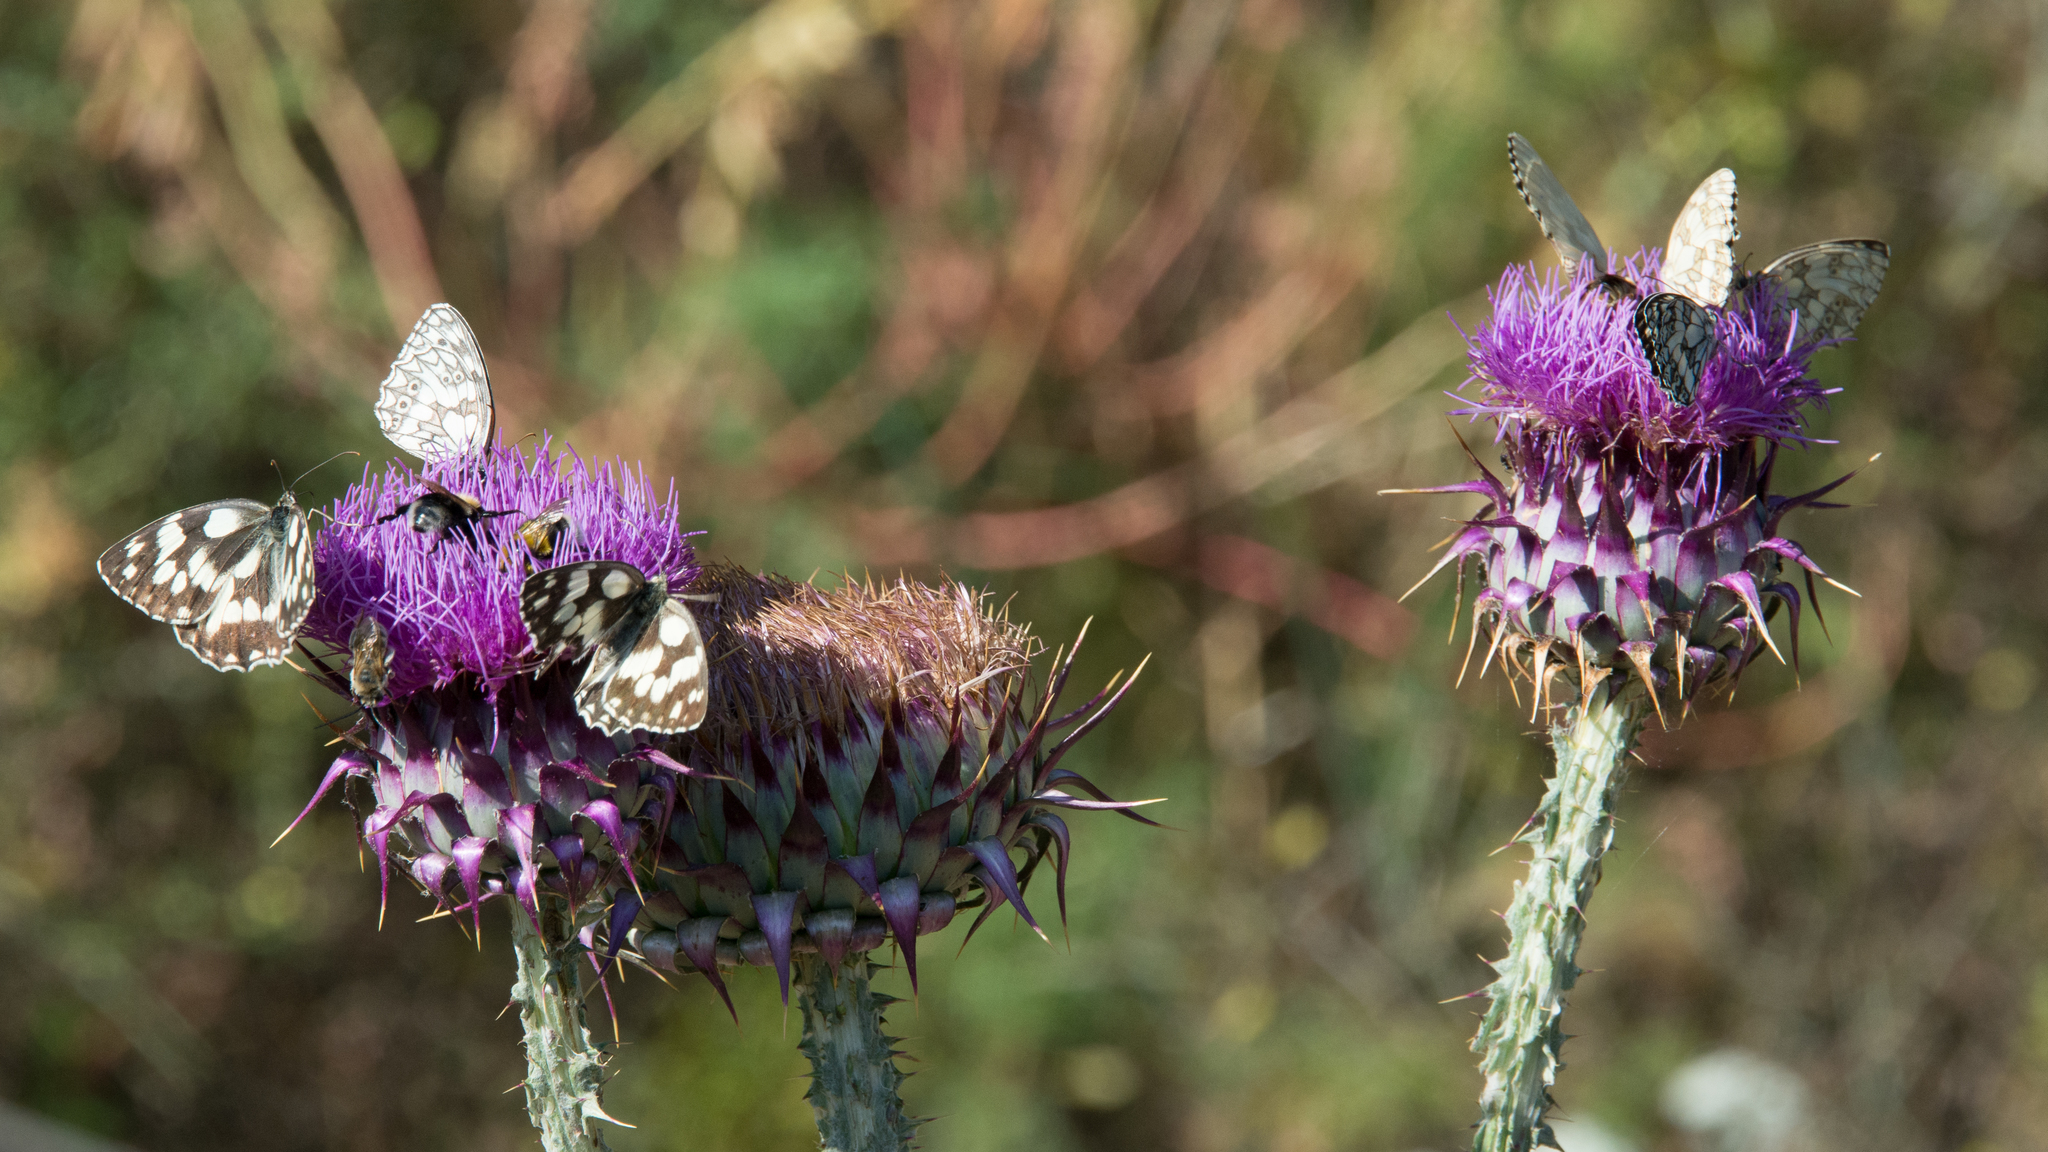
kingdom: Animalia
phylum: Arthropoda
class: Insecta
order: Lepidoptera
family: Nymphalidae
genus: Melanargia
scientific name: Melanargia galathea
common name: Marbled white
